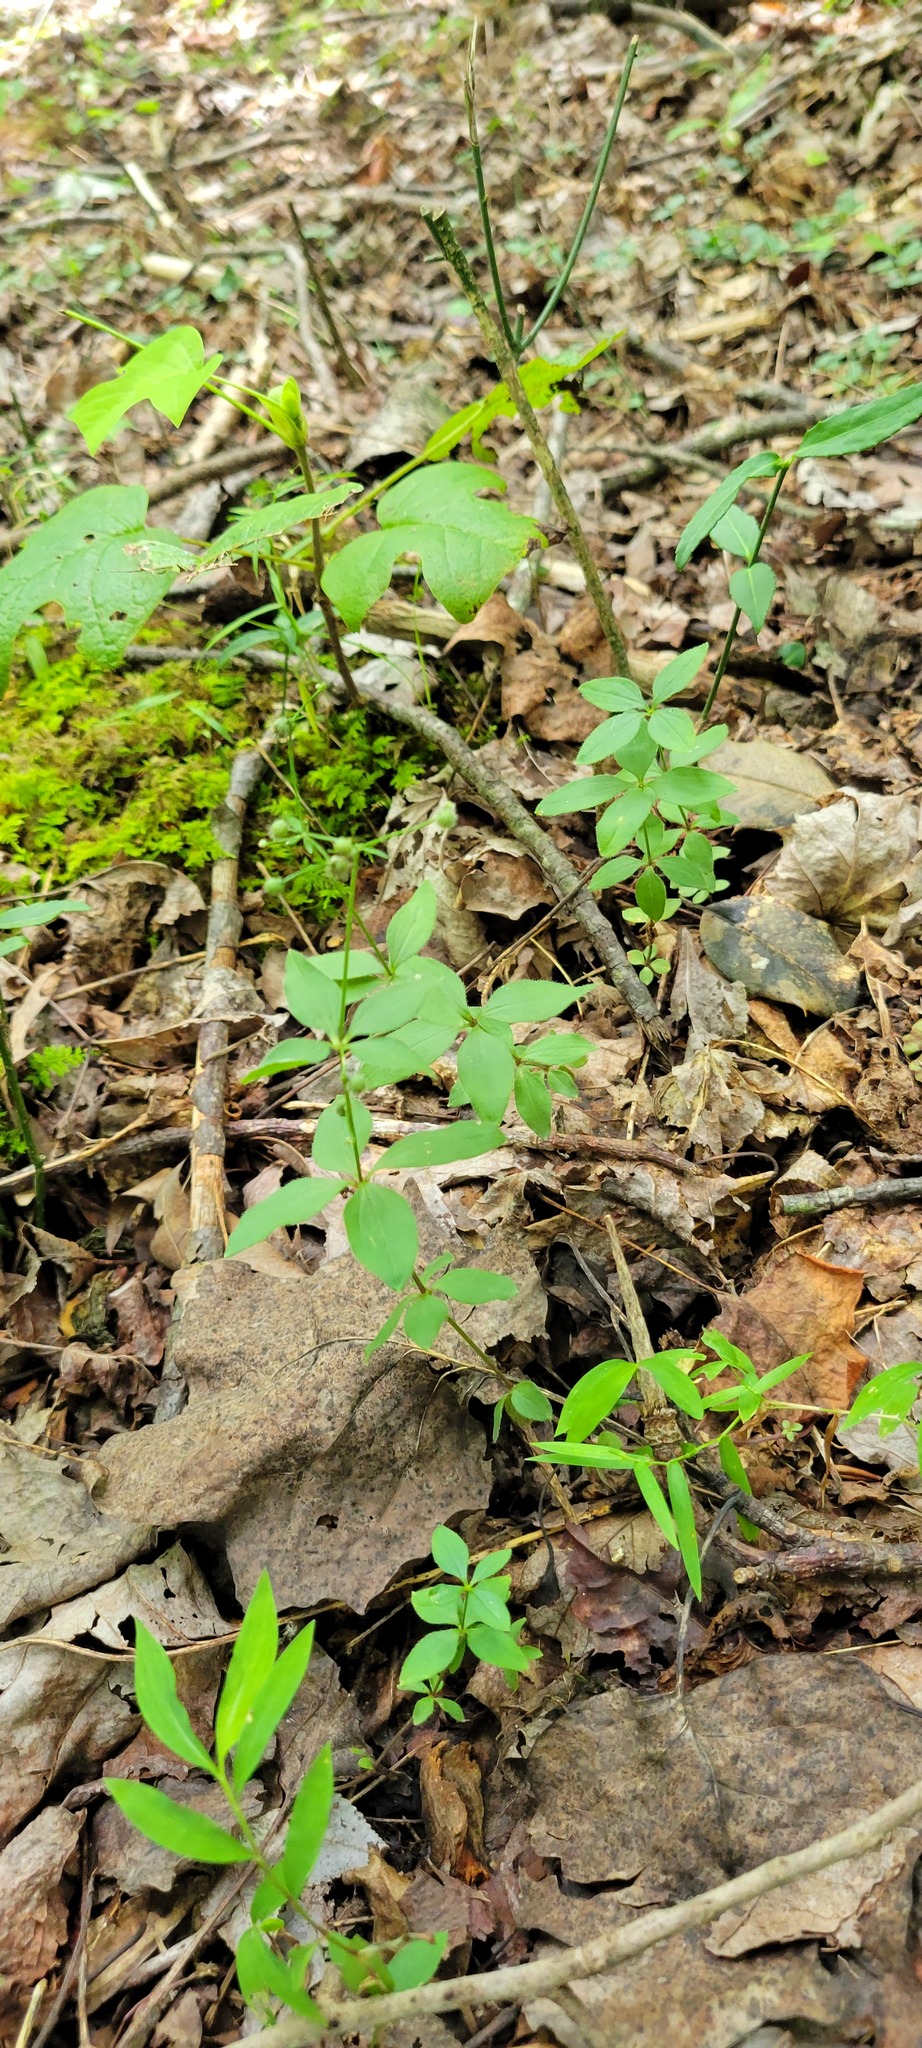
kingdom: Plantae
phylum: Tracheophyta
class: Magnoliopsida
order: Gentianales
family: Rubiaceae
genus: Galium
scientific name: Galium circaezans
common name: Forest bedstraw
